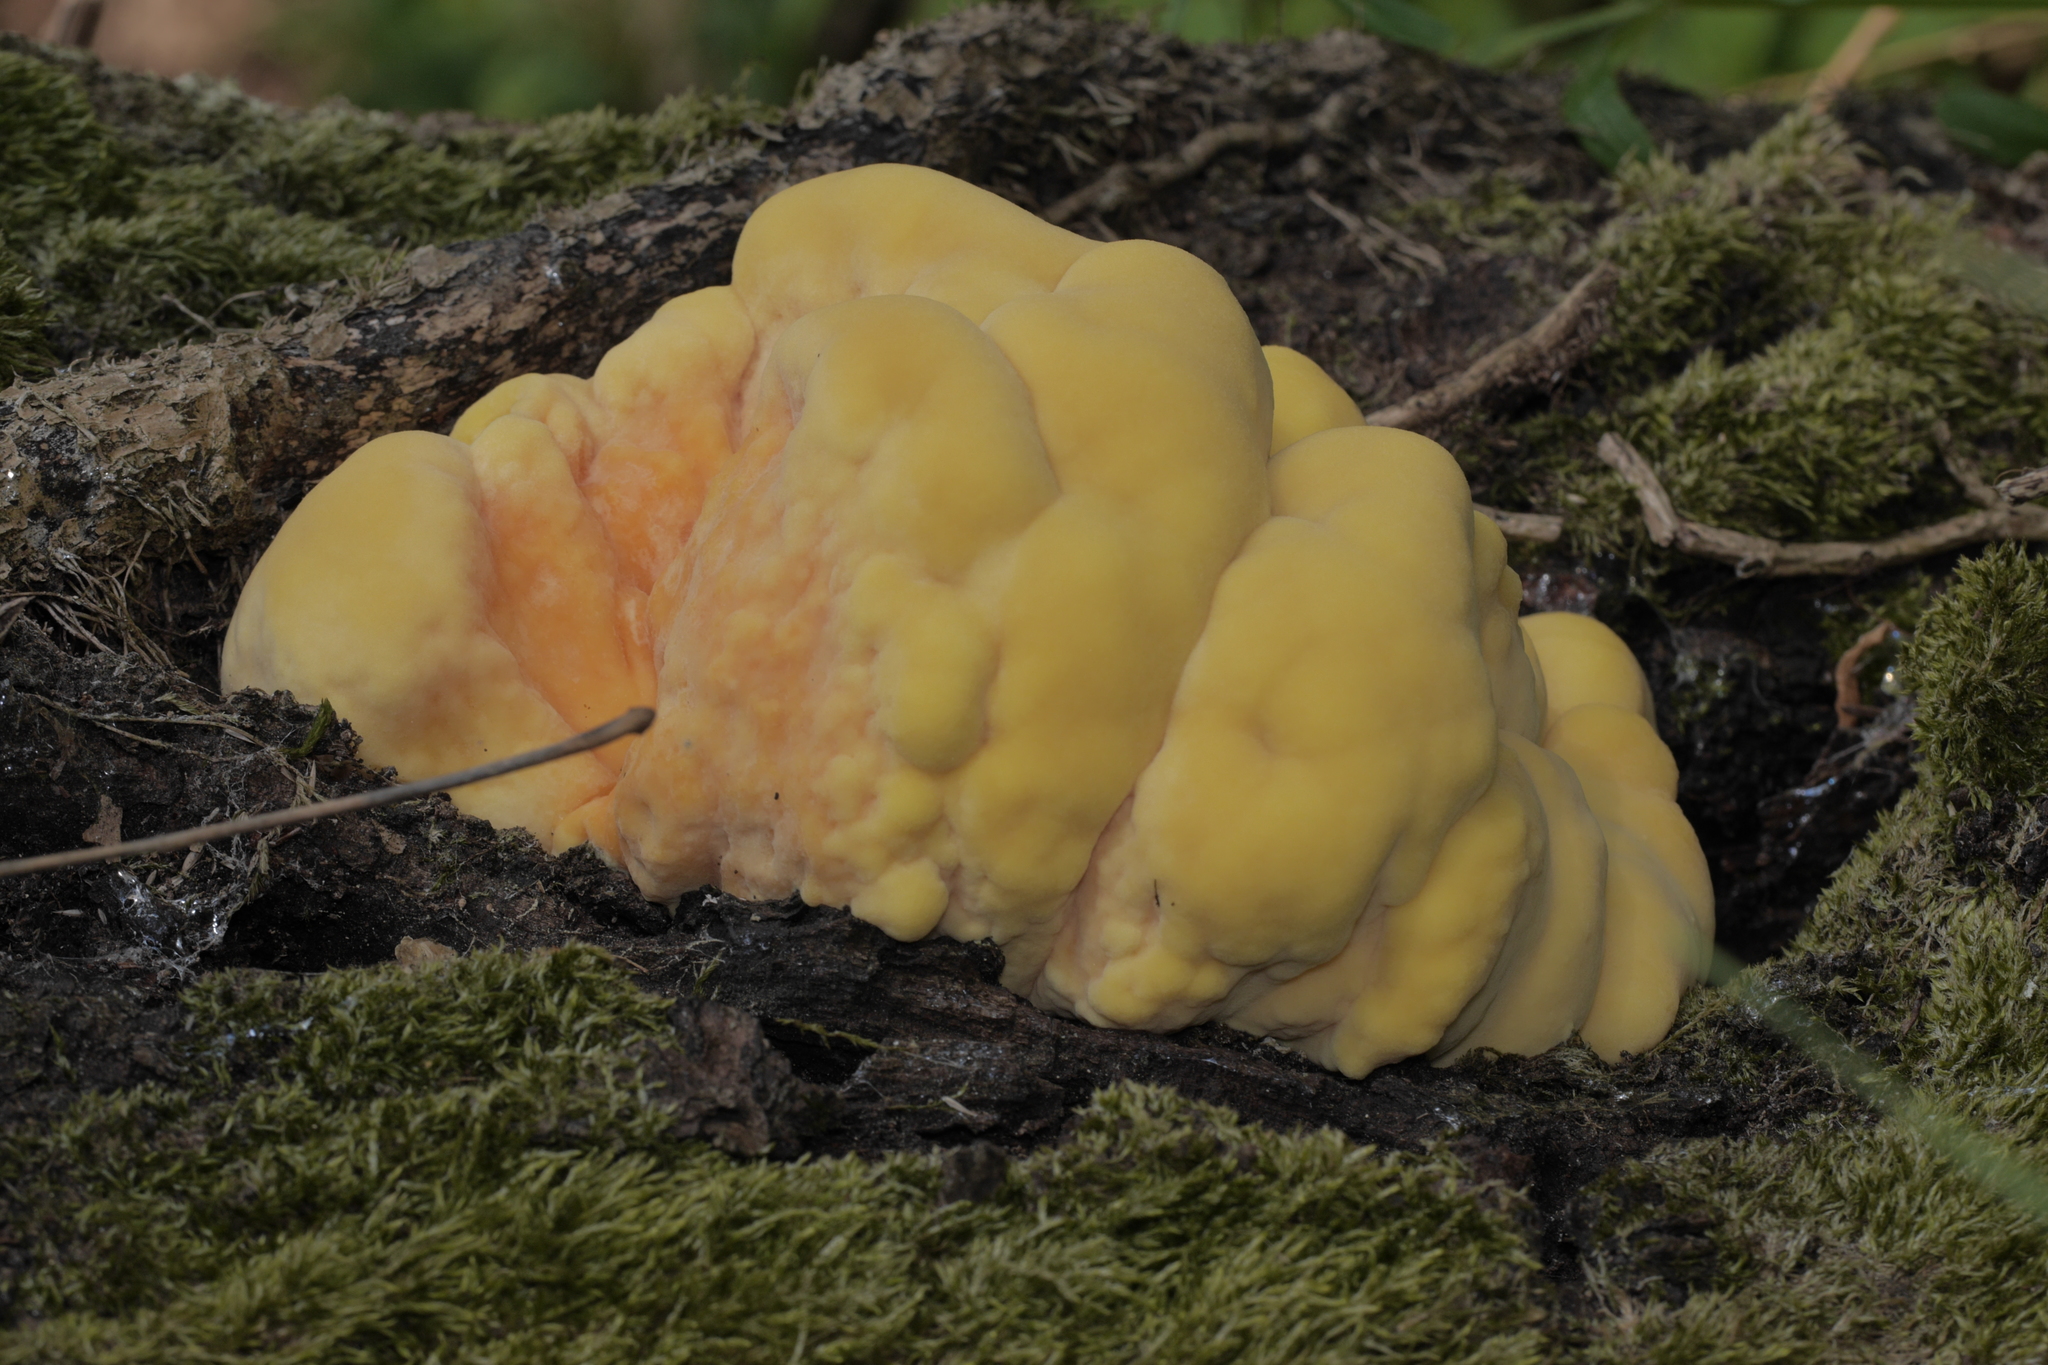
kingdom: Fungi
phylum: Basidiomycota
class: Agaricomycetes
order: Polyporales
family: Laetiporaceae
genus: Laetiporus
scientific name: Laetiporus sulphureus
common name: Chicken of the woods
